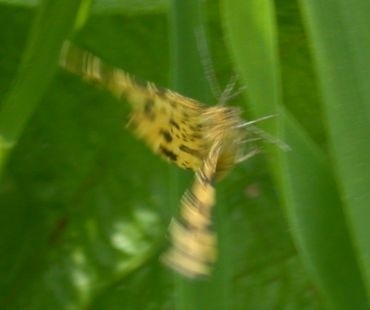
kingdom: Animalia
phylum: Arthropoda
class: Insecta
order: Lepidoptera
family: Geometridae
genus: Pseudopanthera
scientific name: Pseudopanthera macularia
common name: Speckled yellow
